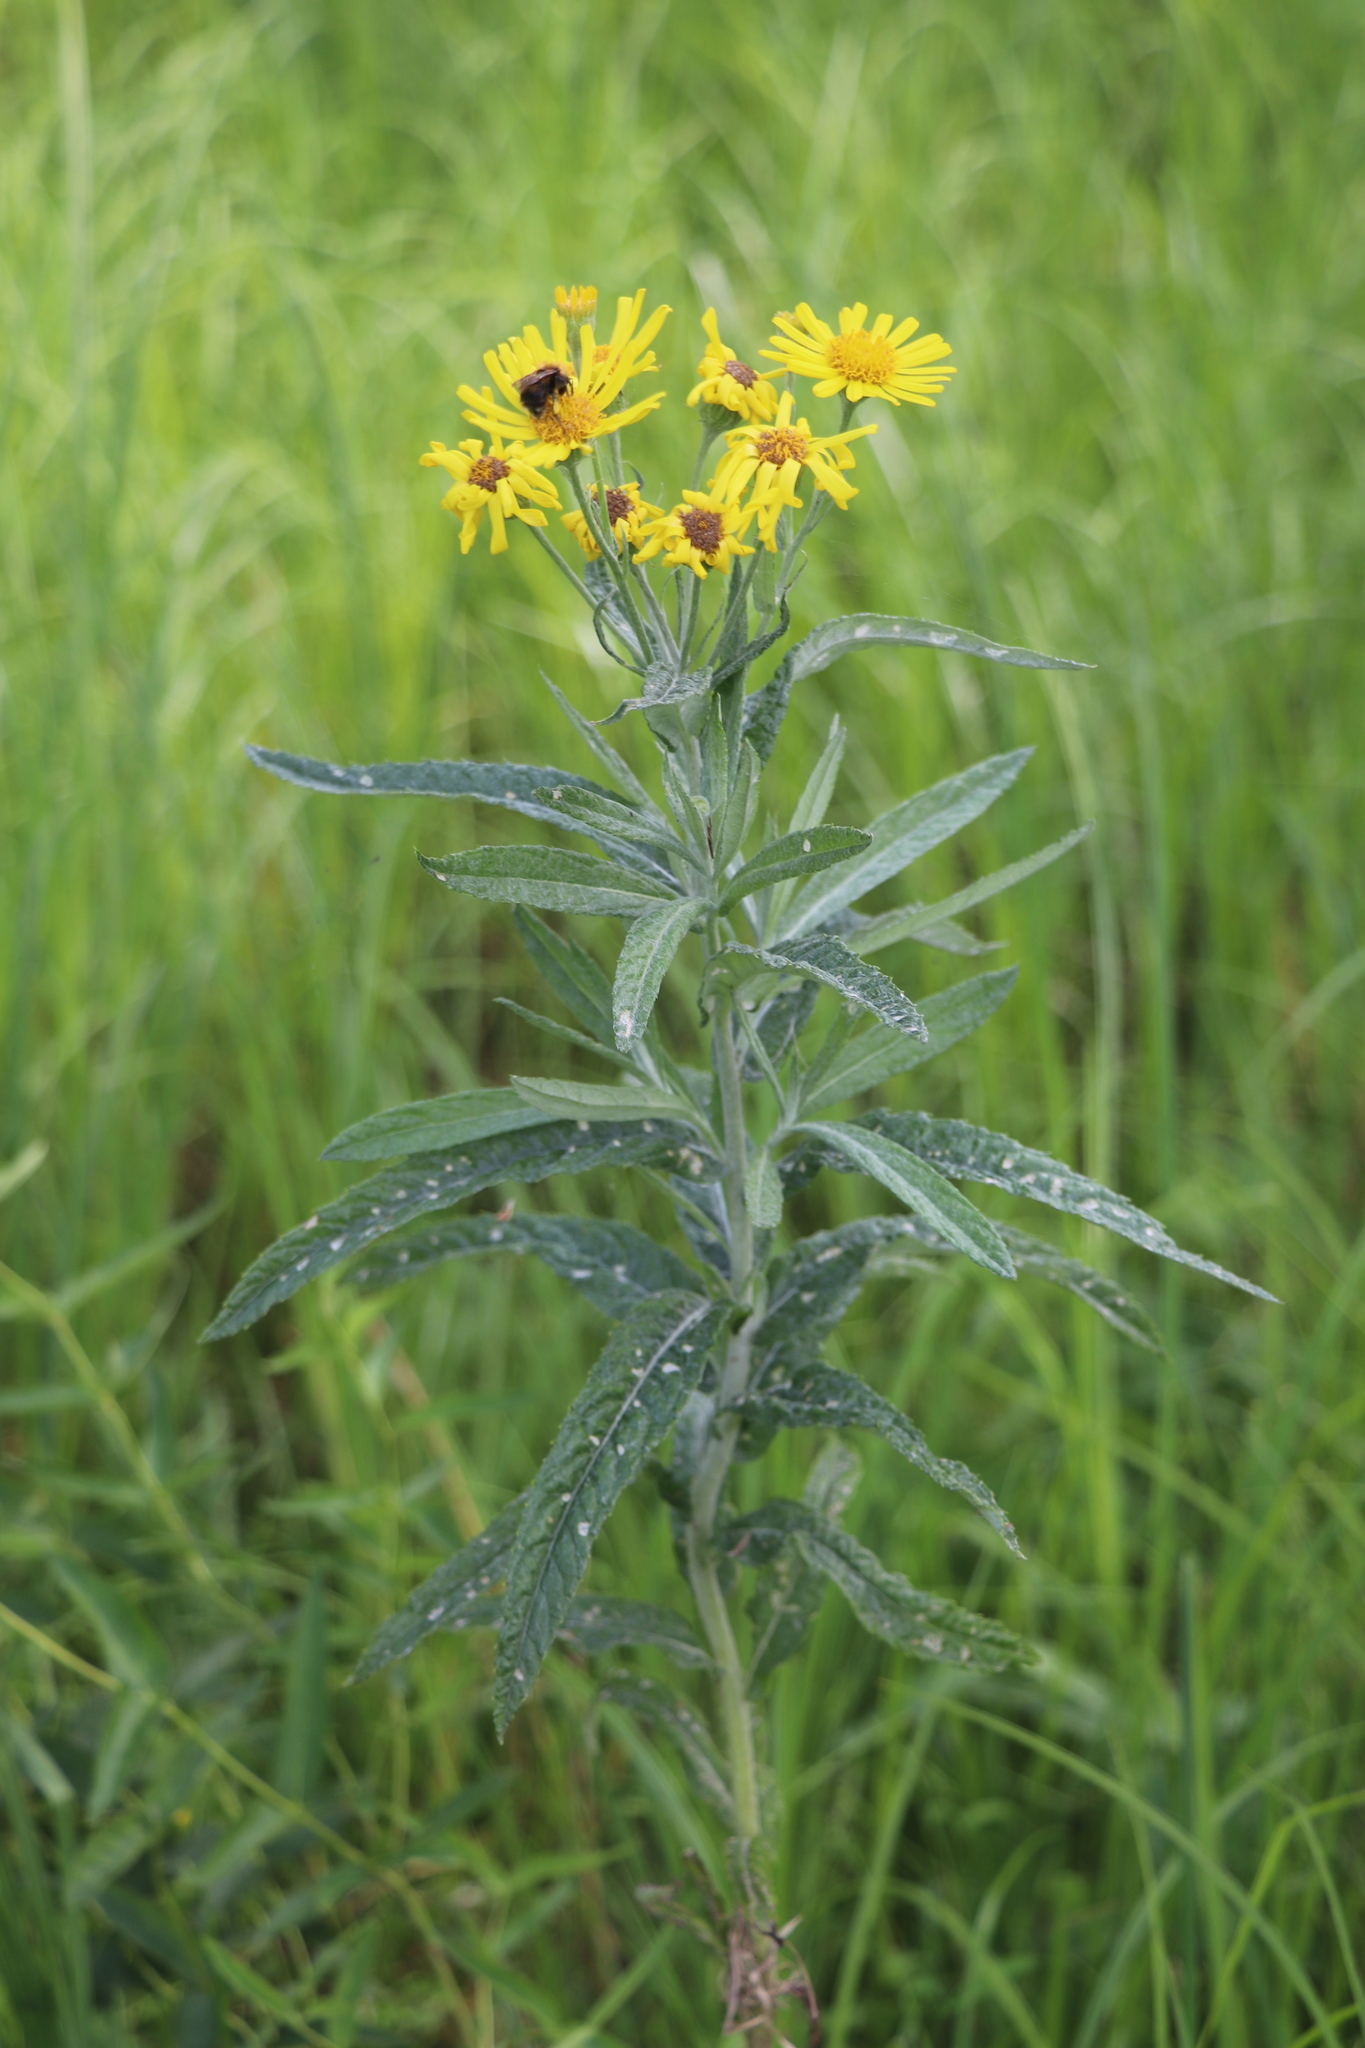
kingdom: Plantae
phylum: Tracheophyta
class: Magnoliopsida
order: Asterales
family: Asteraceae
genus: Jacobaea
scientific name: Jacobaea paludosa
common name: Fen ragwort
